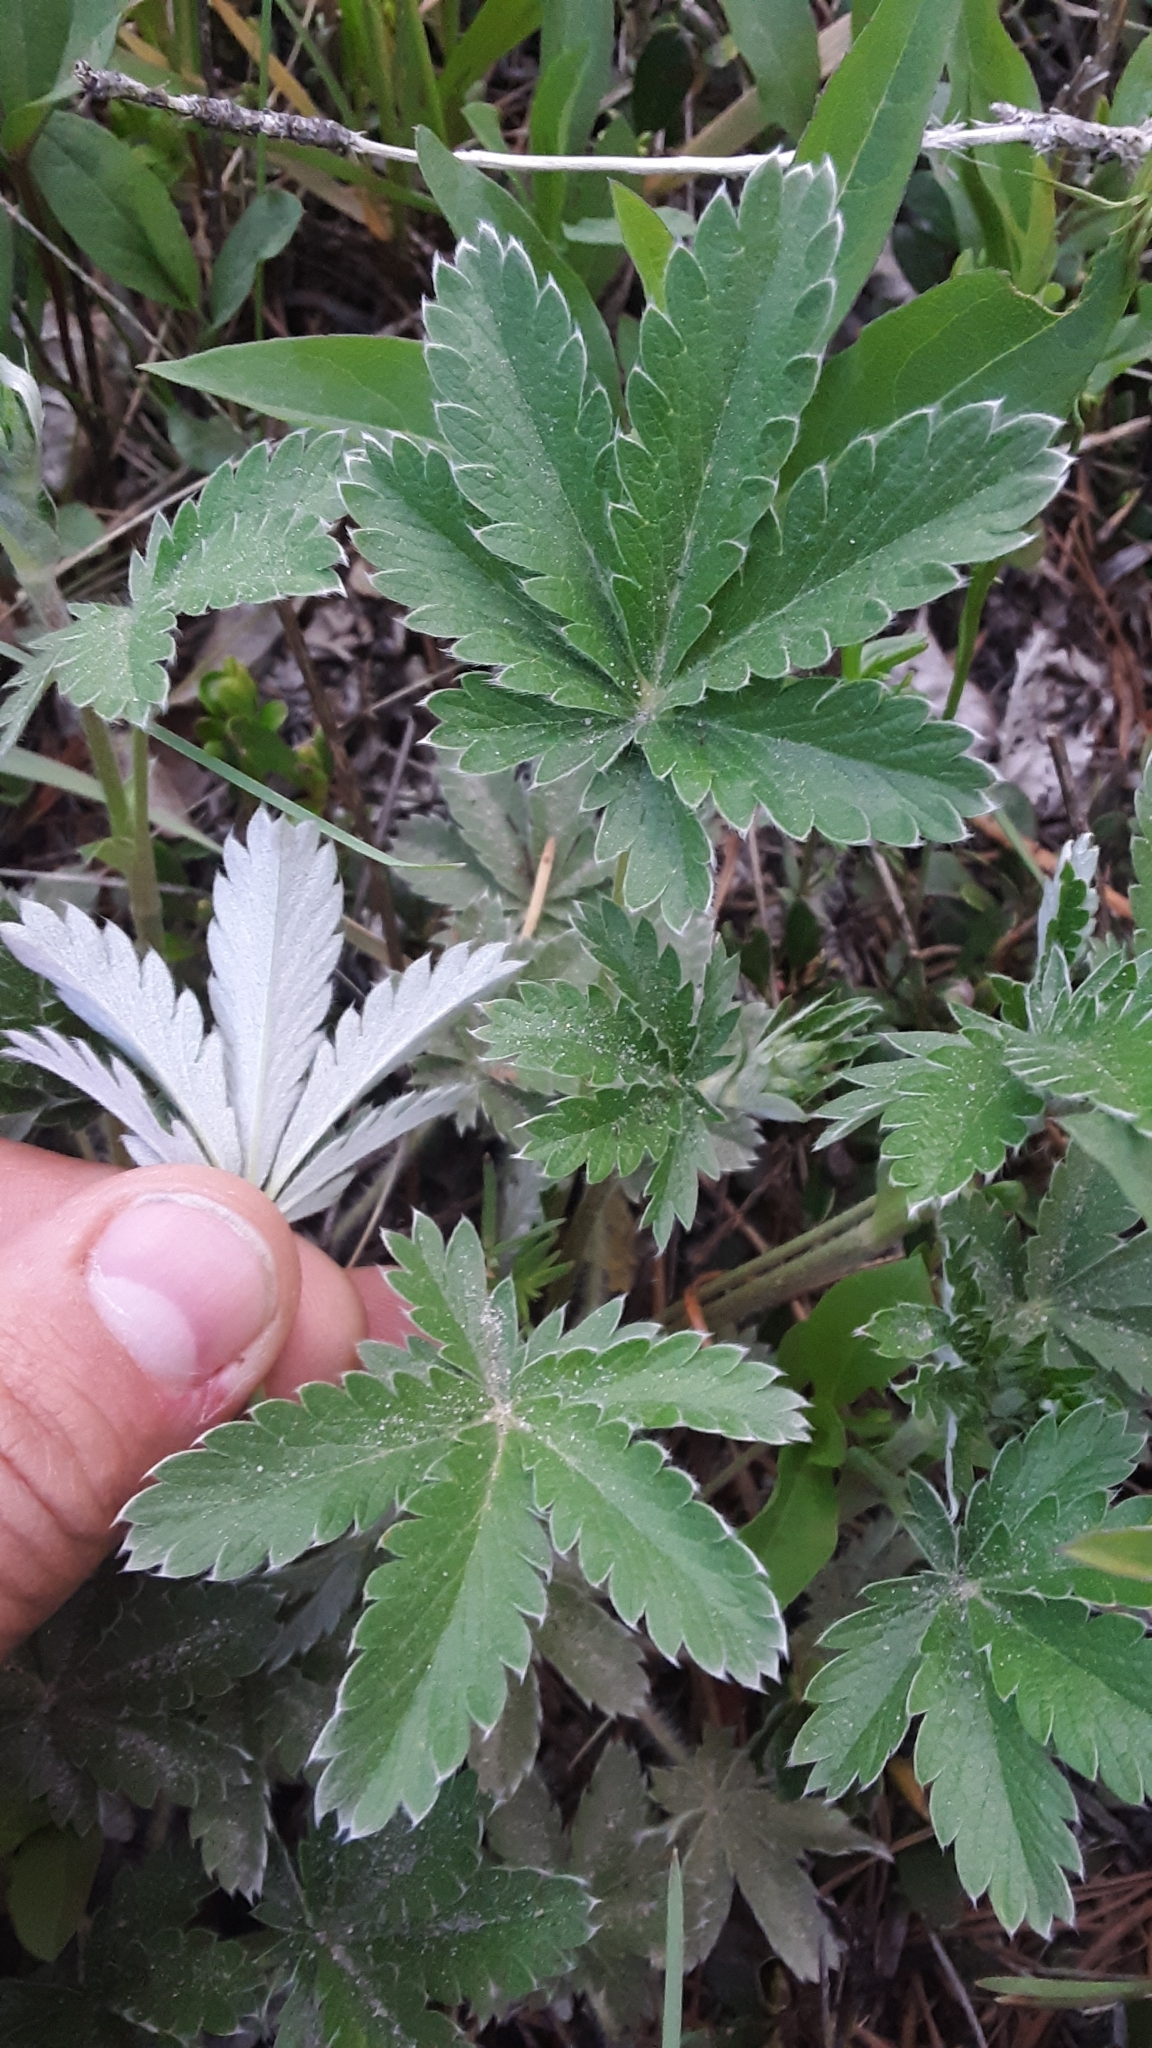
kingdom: Plantae
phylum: Tracheophyta
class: Magnoliopsida
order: Rosales
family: Rosaceae
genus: Potentilla
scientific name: Potentilla gracilis
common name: Graceful cinquefoil
